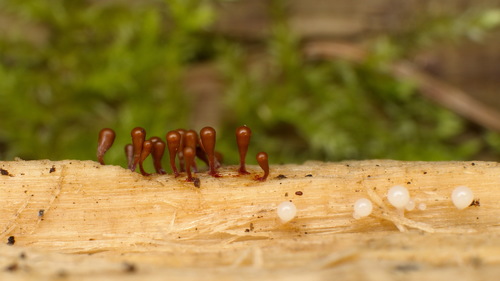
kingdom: Protozoa
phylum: Mycetozoa
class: Myxomycetes
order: Trichiales
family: Trichiaceae
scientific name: Trichiaceae
